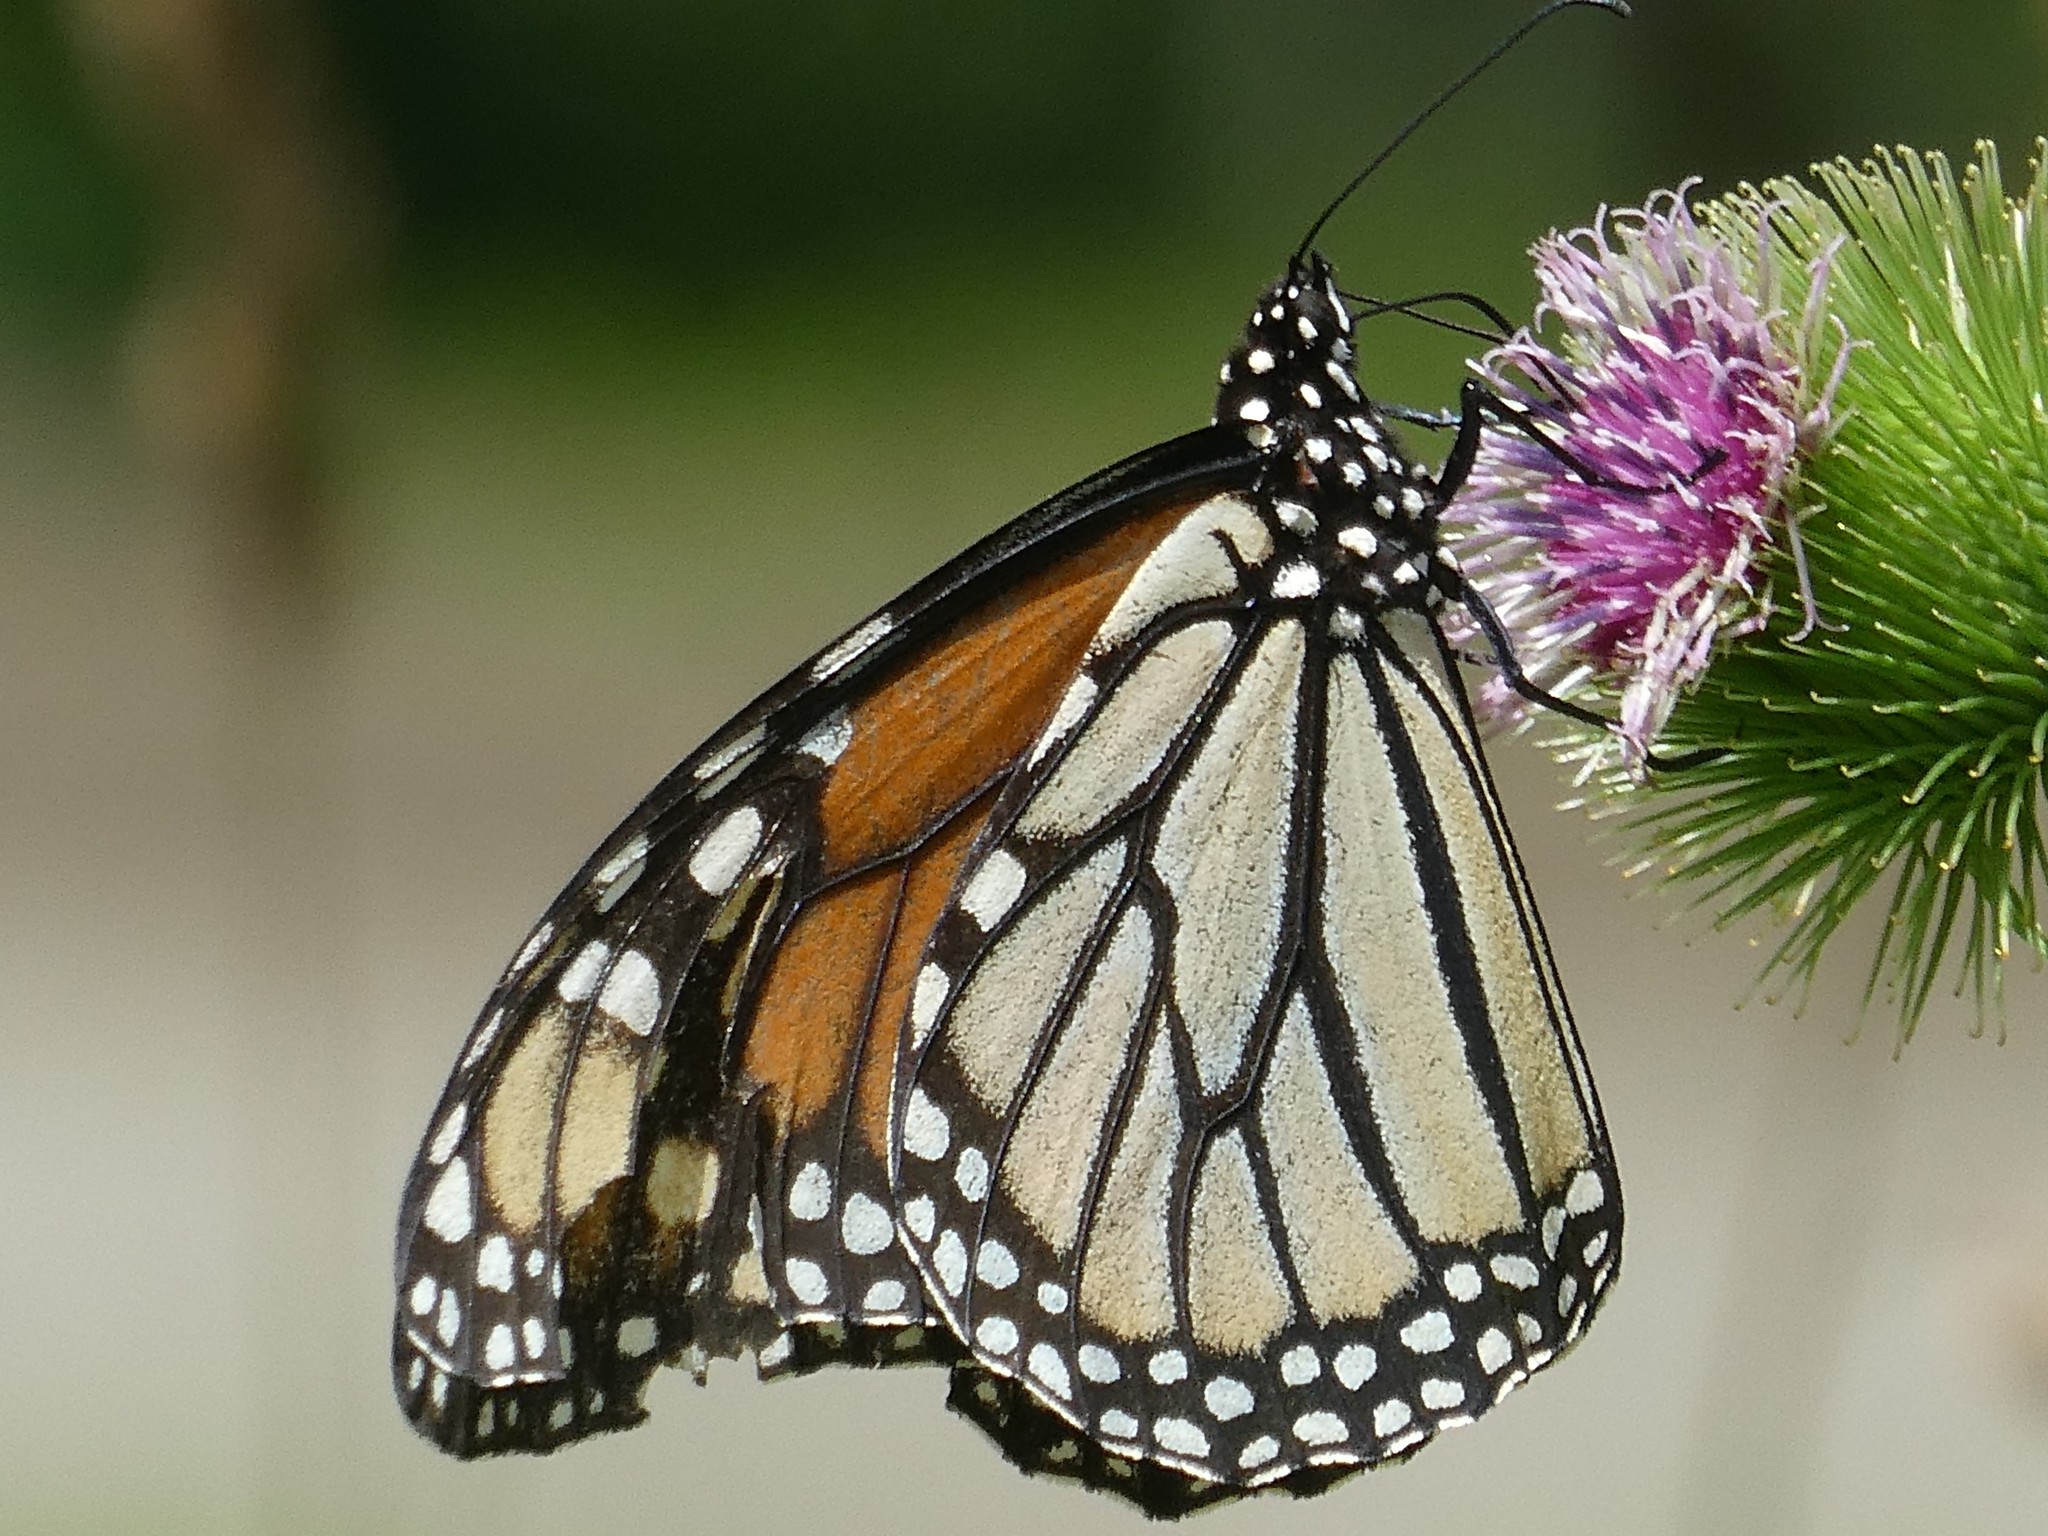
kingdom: Animalia
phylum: Arthropoda
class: Insecta
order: Lepidoptera
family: Nymphalidae
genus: Danaus
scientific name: Danaus plexippus
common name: Monarch
